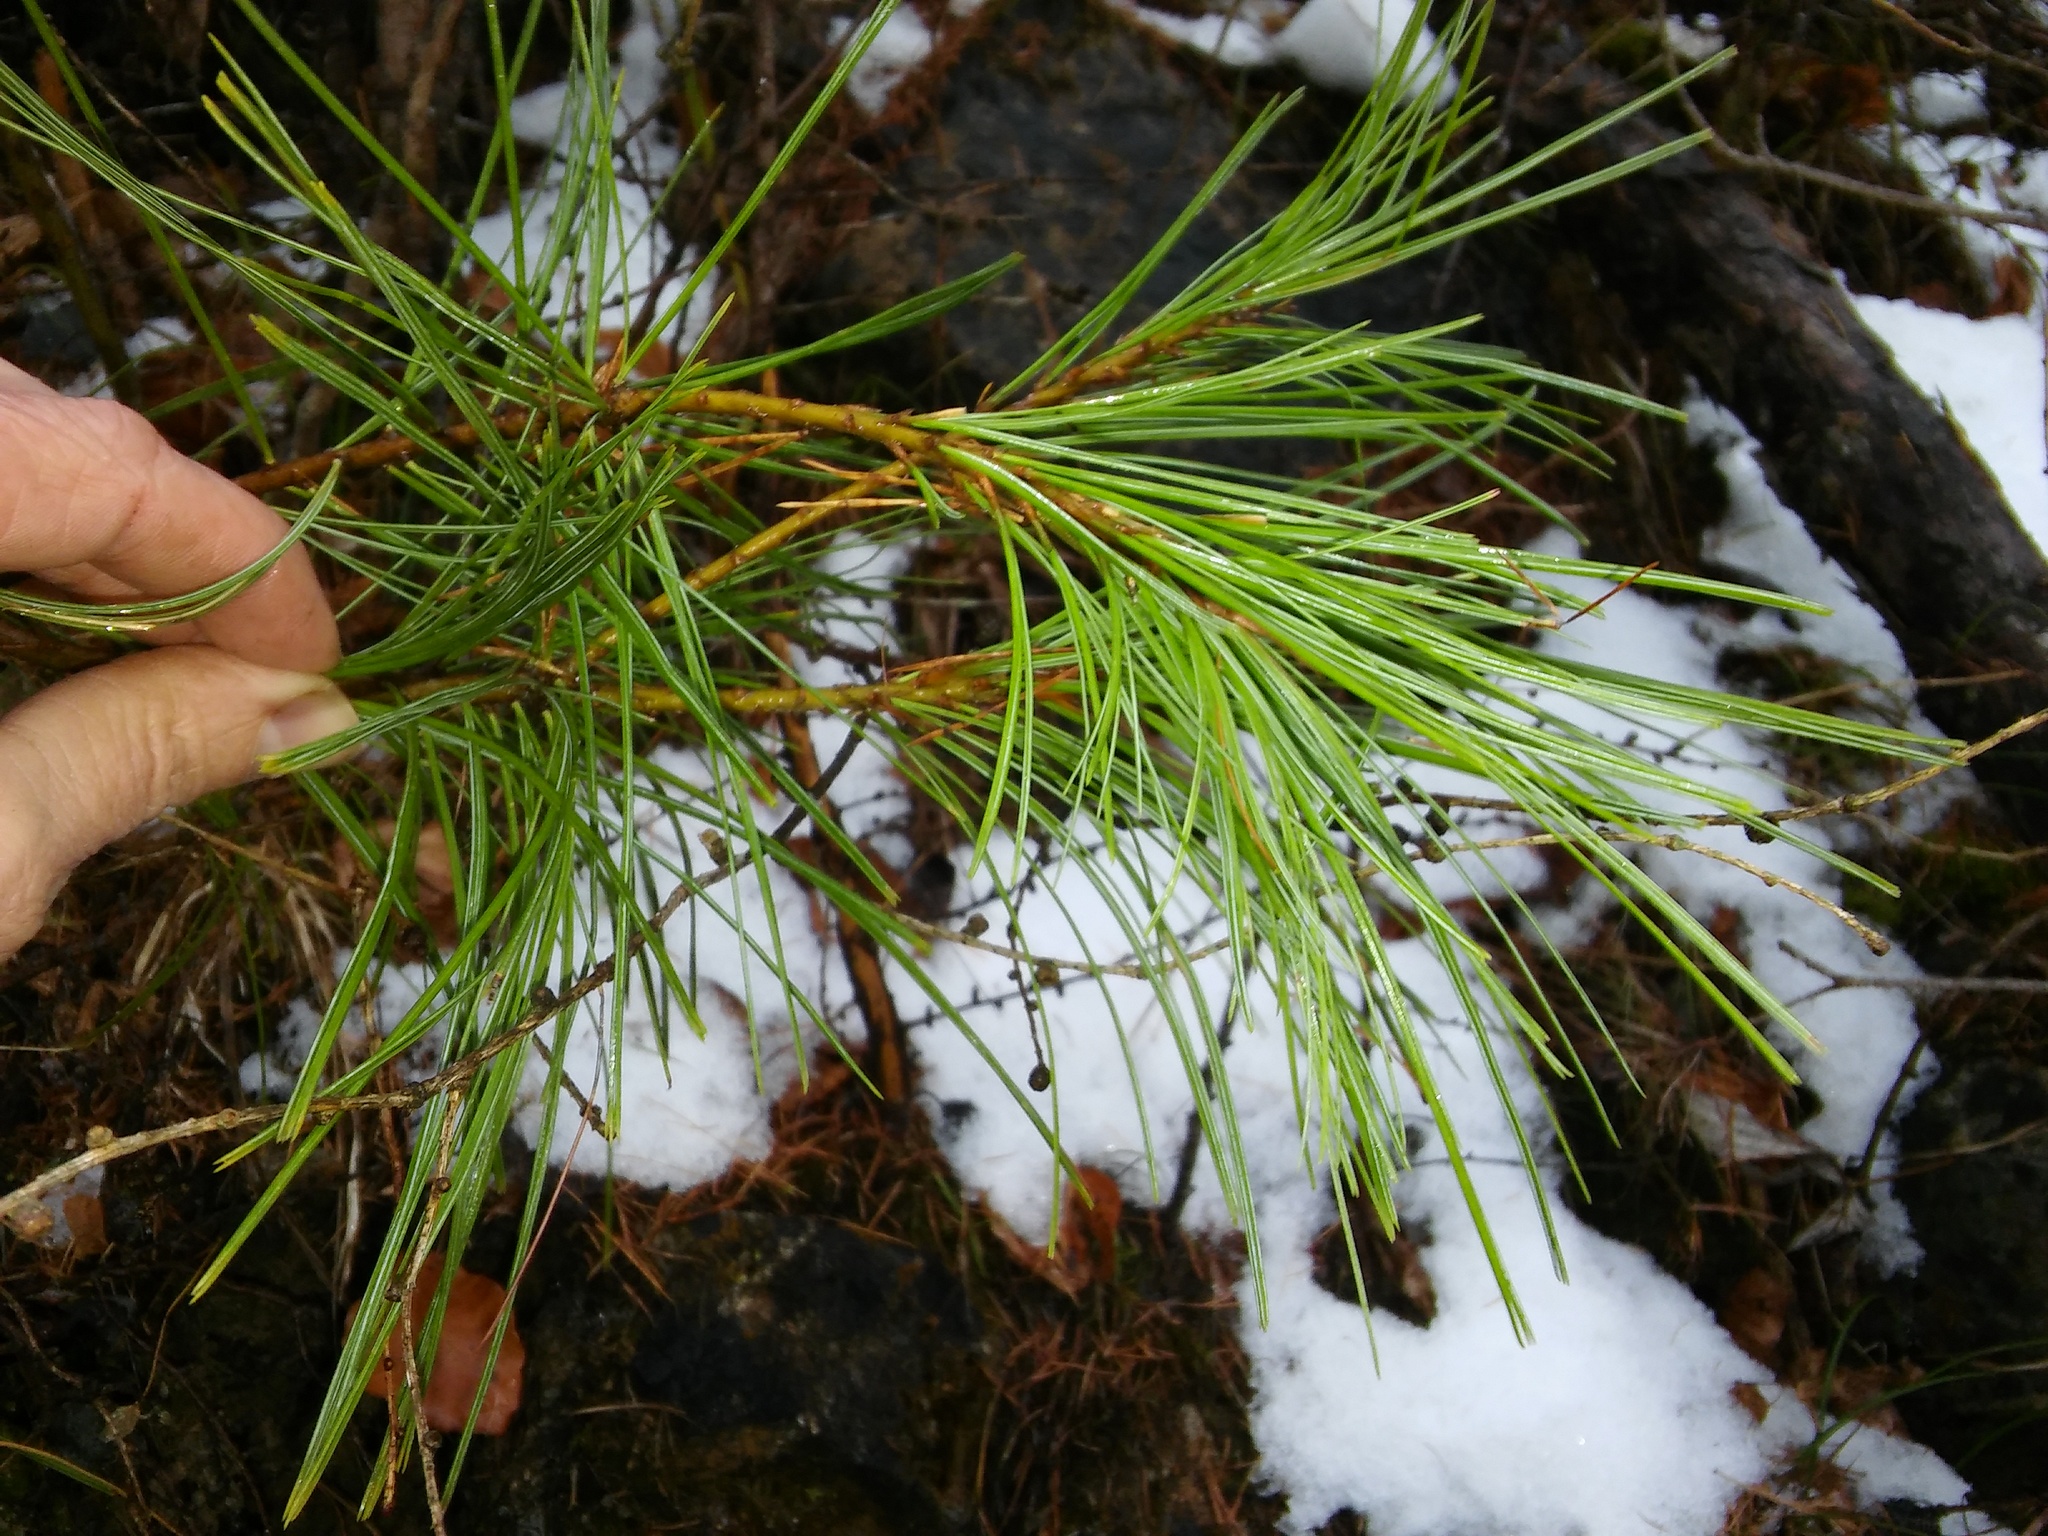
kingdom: Plantae
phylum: Tracheophyta
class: Pinopsida
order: Pinales
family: Pinaceae
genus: Pinus
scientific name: Pinus strobus
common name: Weymouth pine
